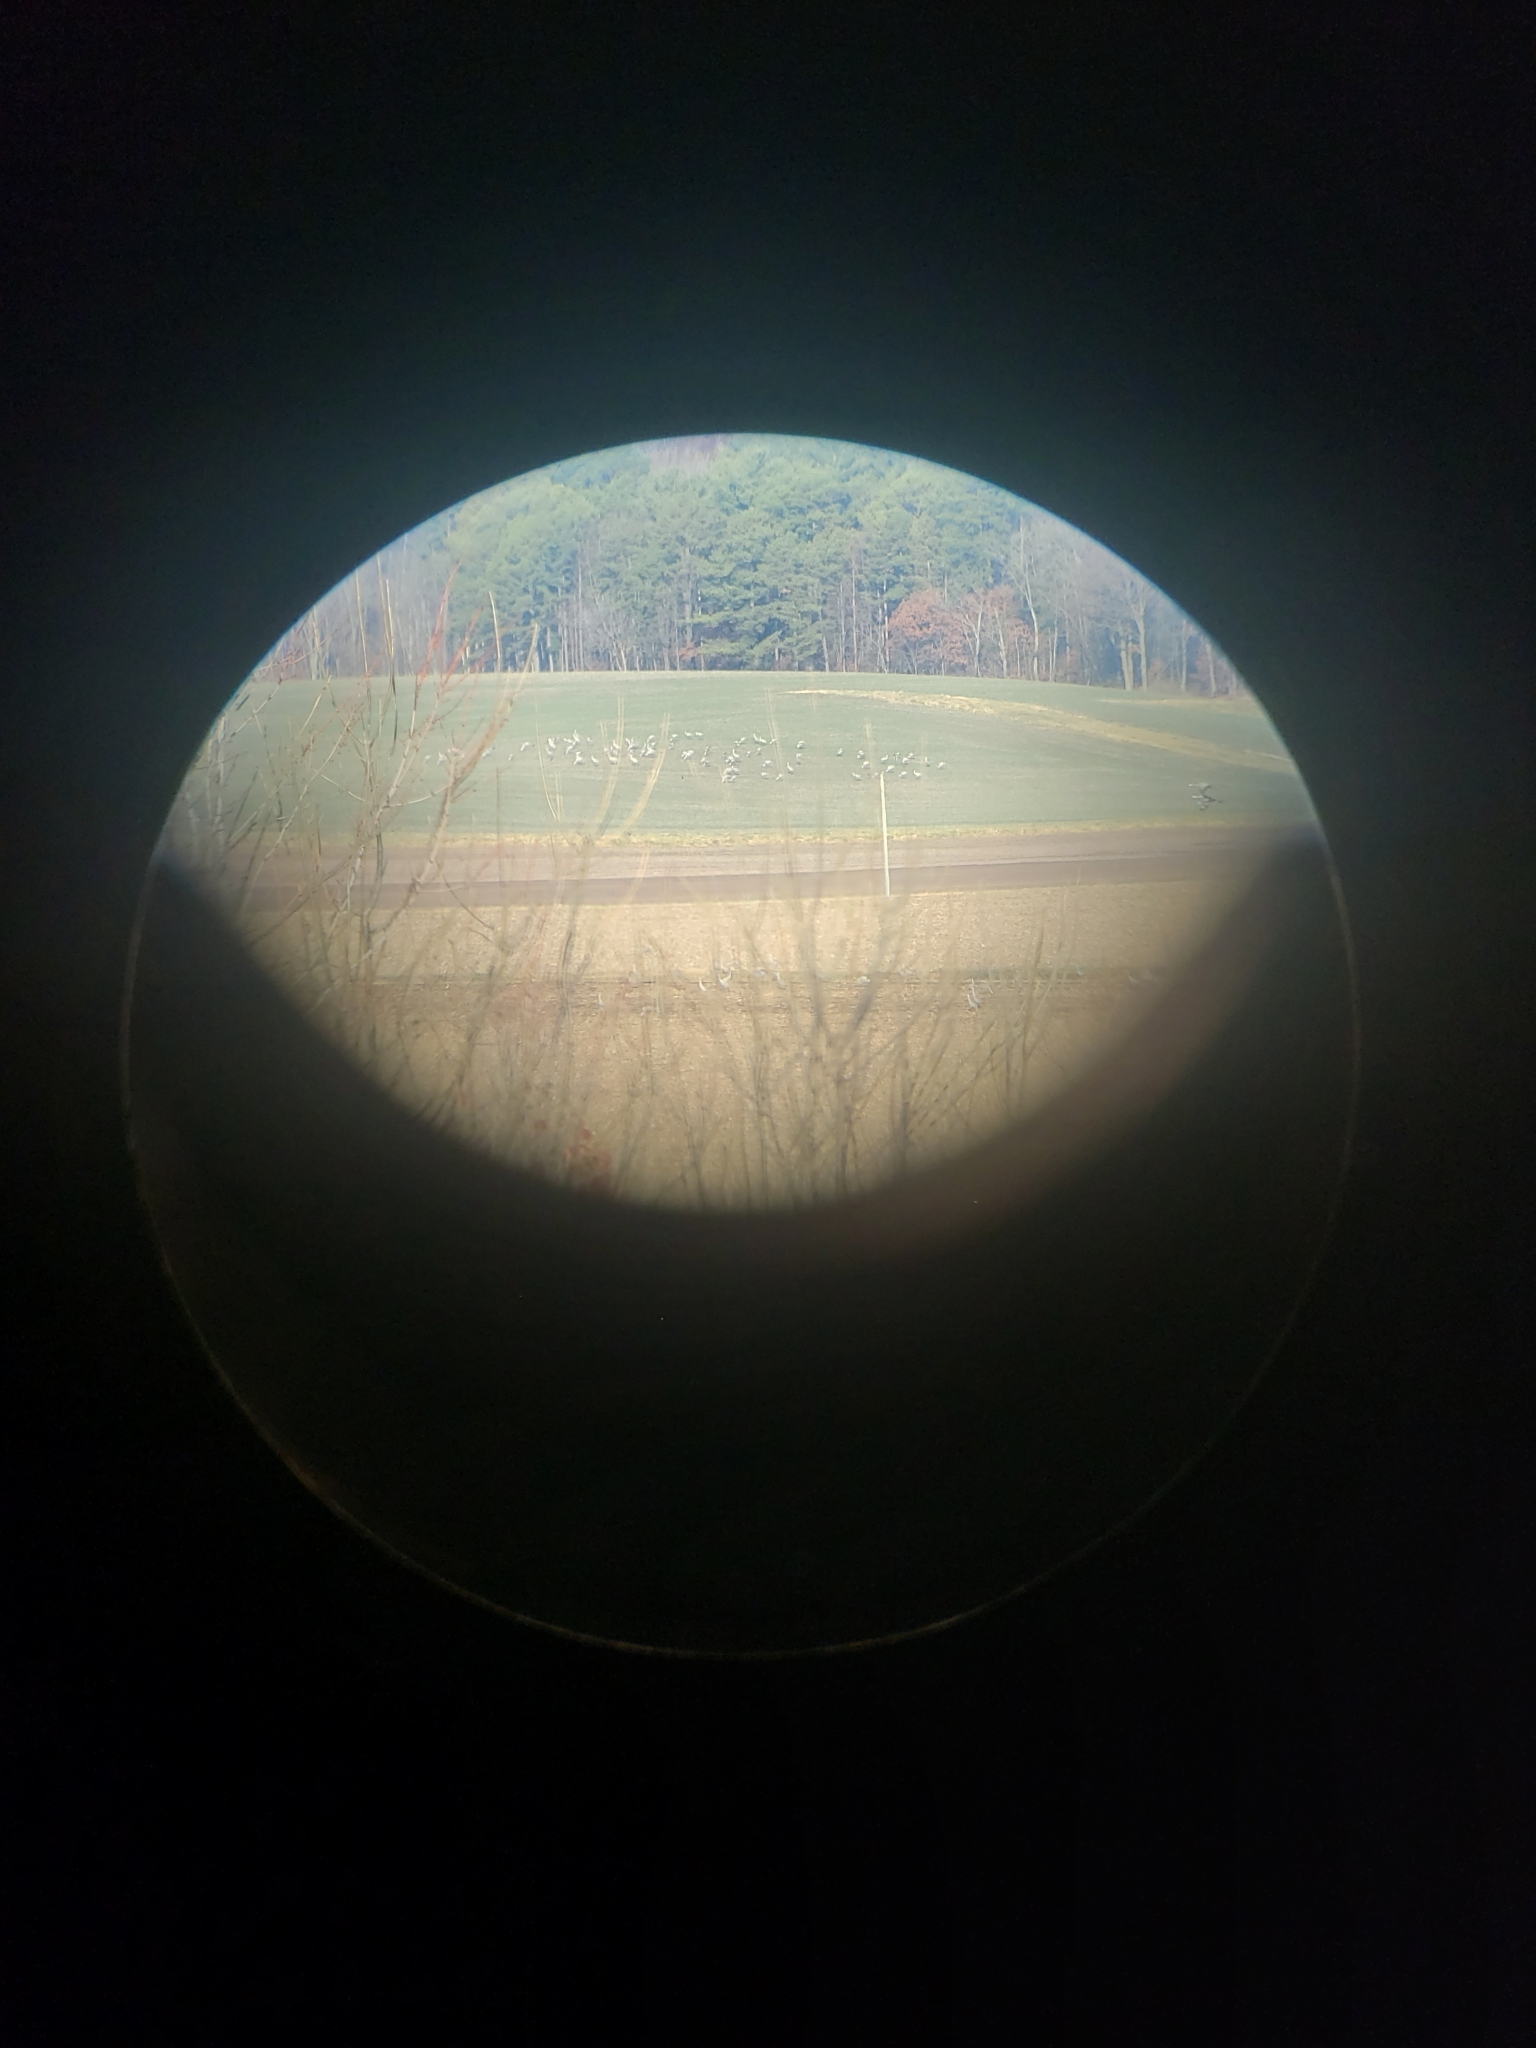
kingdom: Animalia
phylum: Chordata
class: Aves
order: Gruiformes
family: Gruidae
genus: Grus
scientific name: Grus canadensis
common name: Sandhill crane
